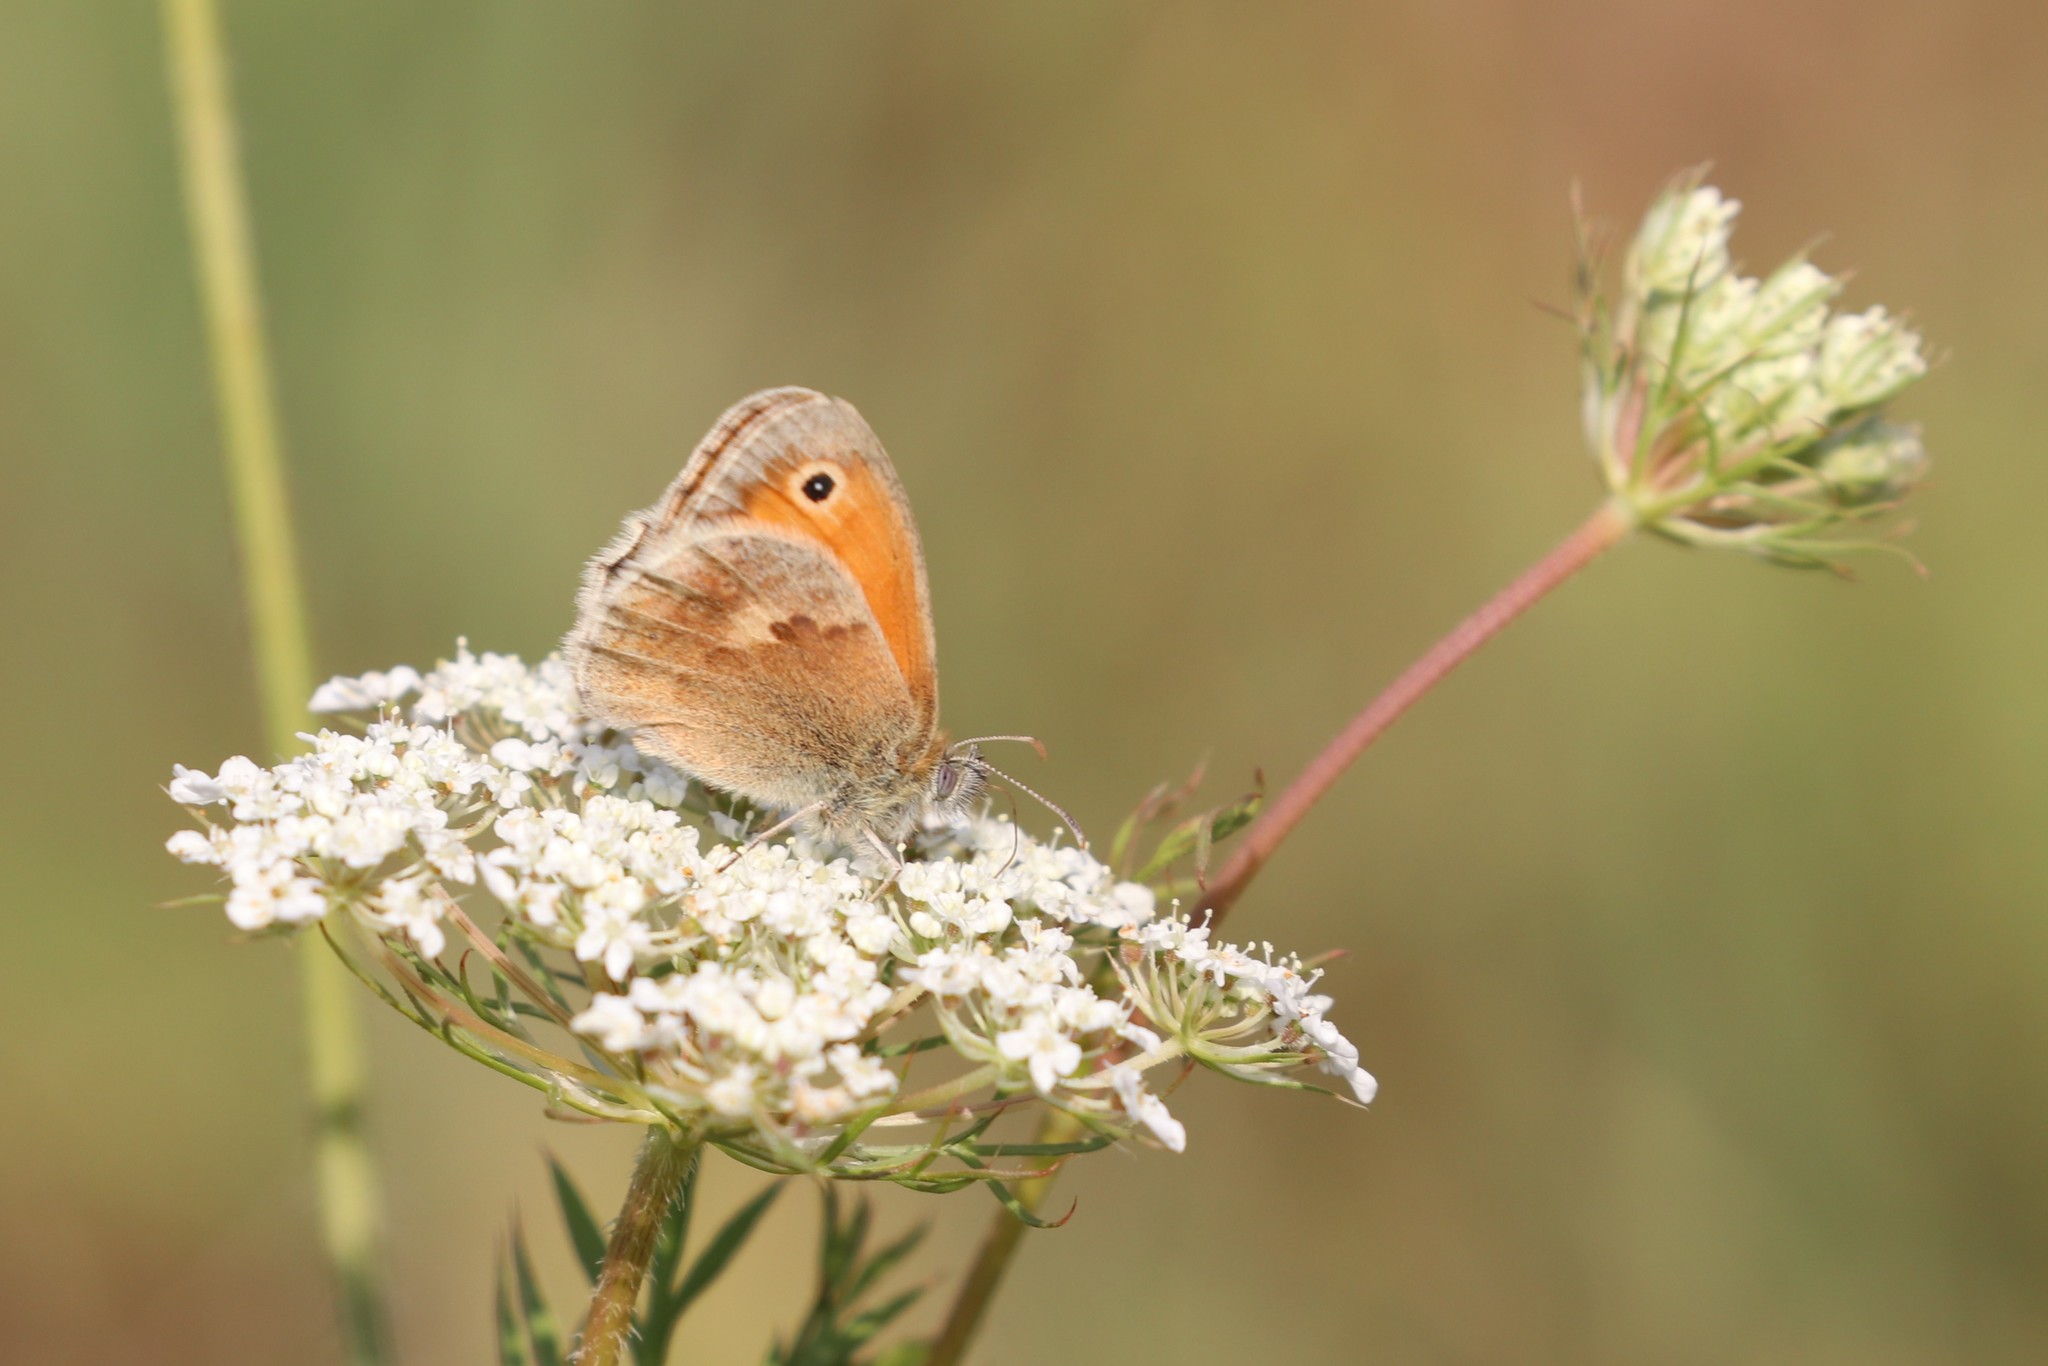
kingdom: Animalia
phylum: Arthropoda
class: Insecta
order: Lepidoptera
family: Nymphalidae
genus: Coenonympha
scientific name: Coenonympha pamphilus
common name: Small heath
